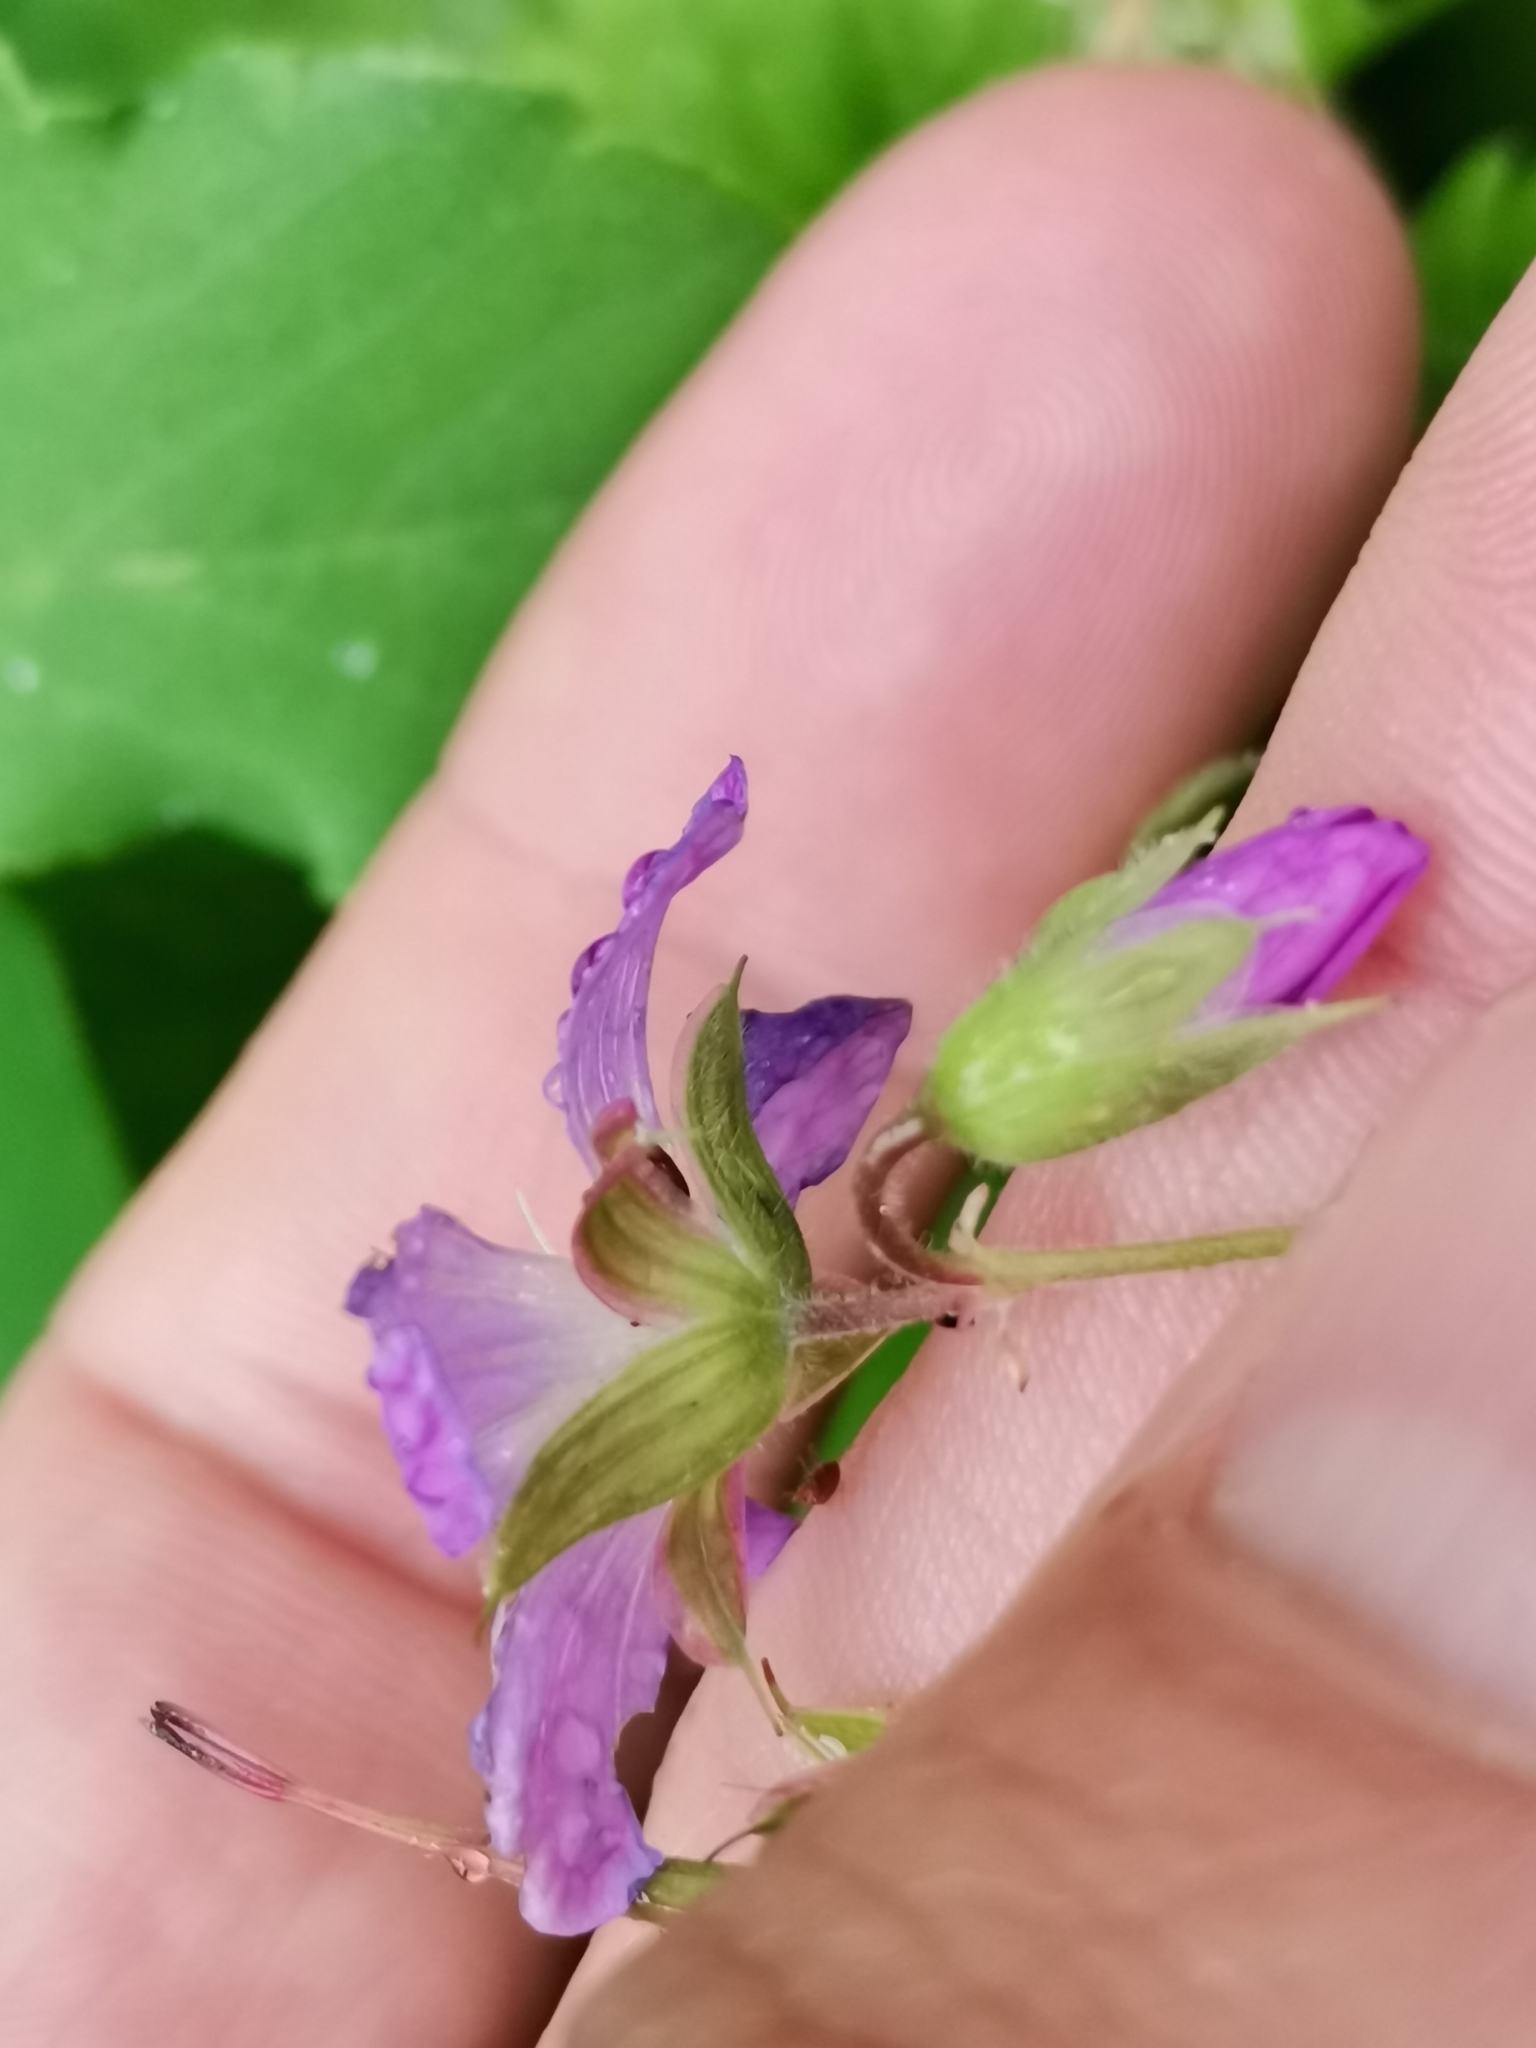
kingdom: Plantae
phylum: Tracheophyta
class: Magnoliopsida
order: Geraniales
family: Geraniaceae
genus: Geranium
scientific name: Geranium sylvaticum
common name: Wood crane's-bill
